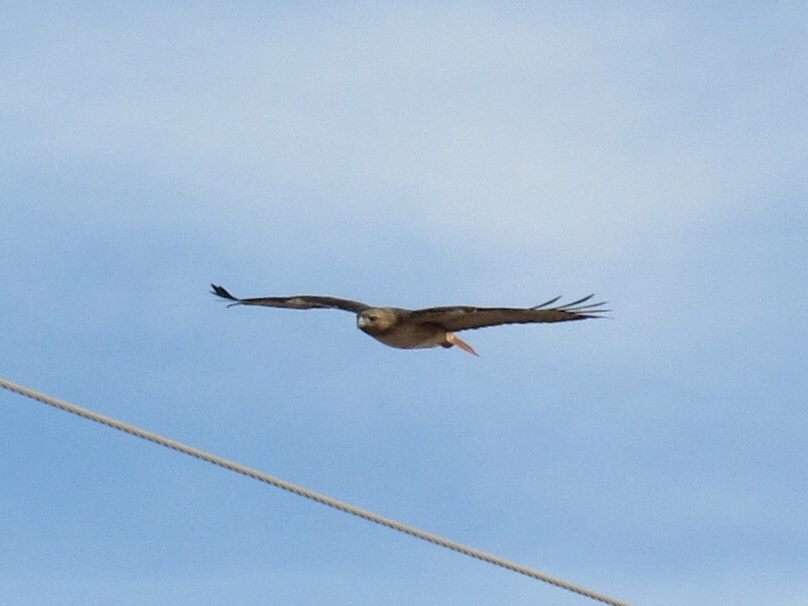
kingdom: Animalia
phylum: Chordata
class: Aves
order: Accipitriformes
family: Accipitridae
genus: Buteo
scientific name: Buteo jamaicensis
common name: Red-tailed hawk
